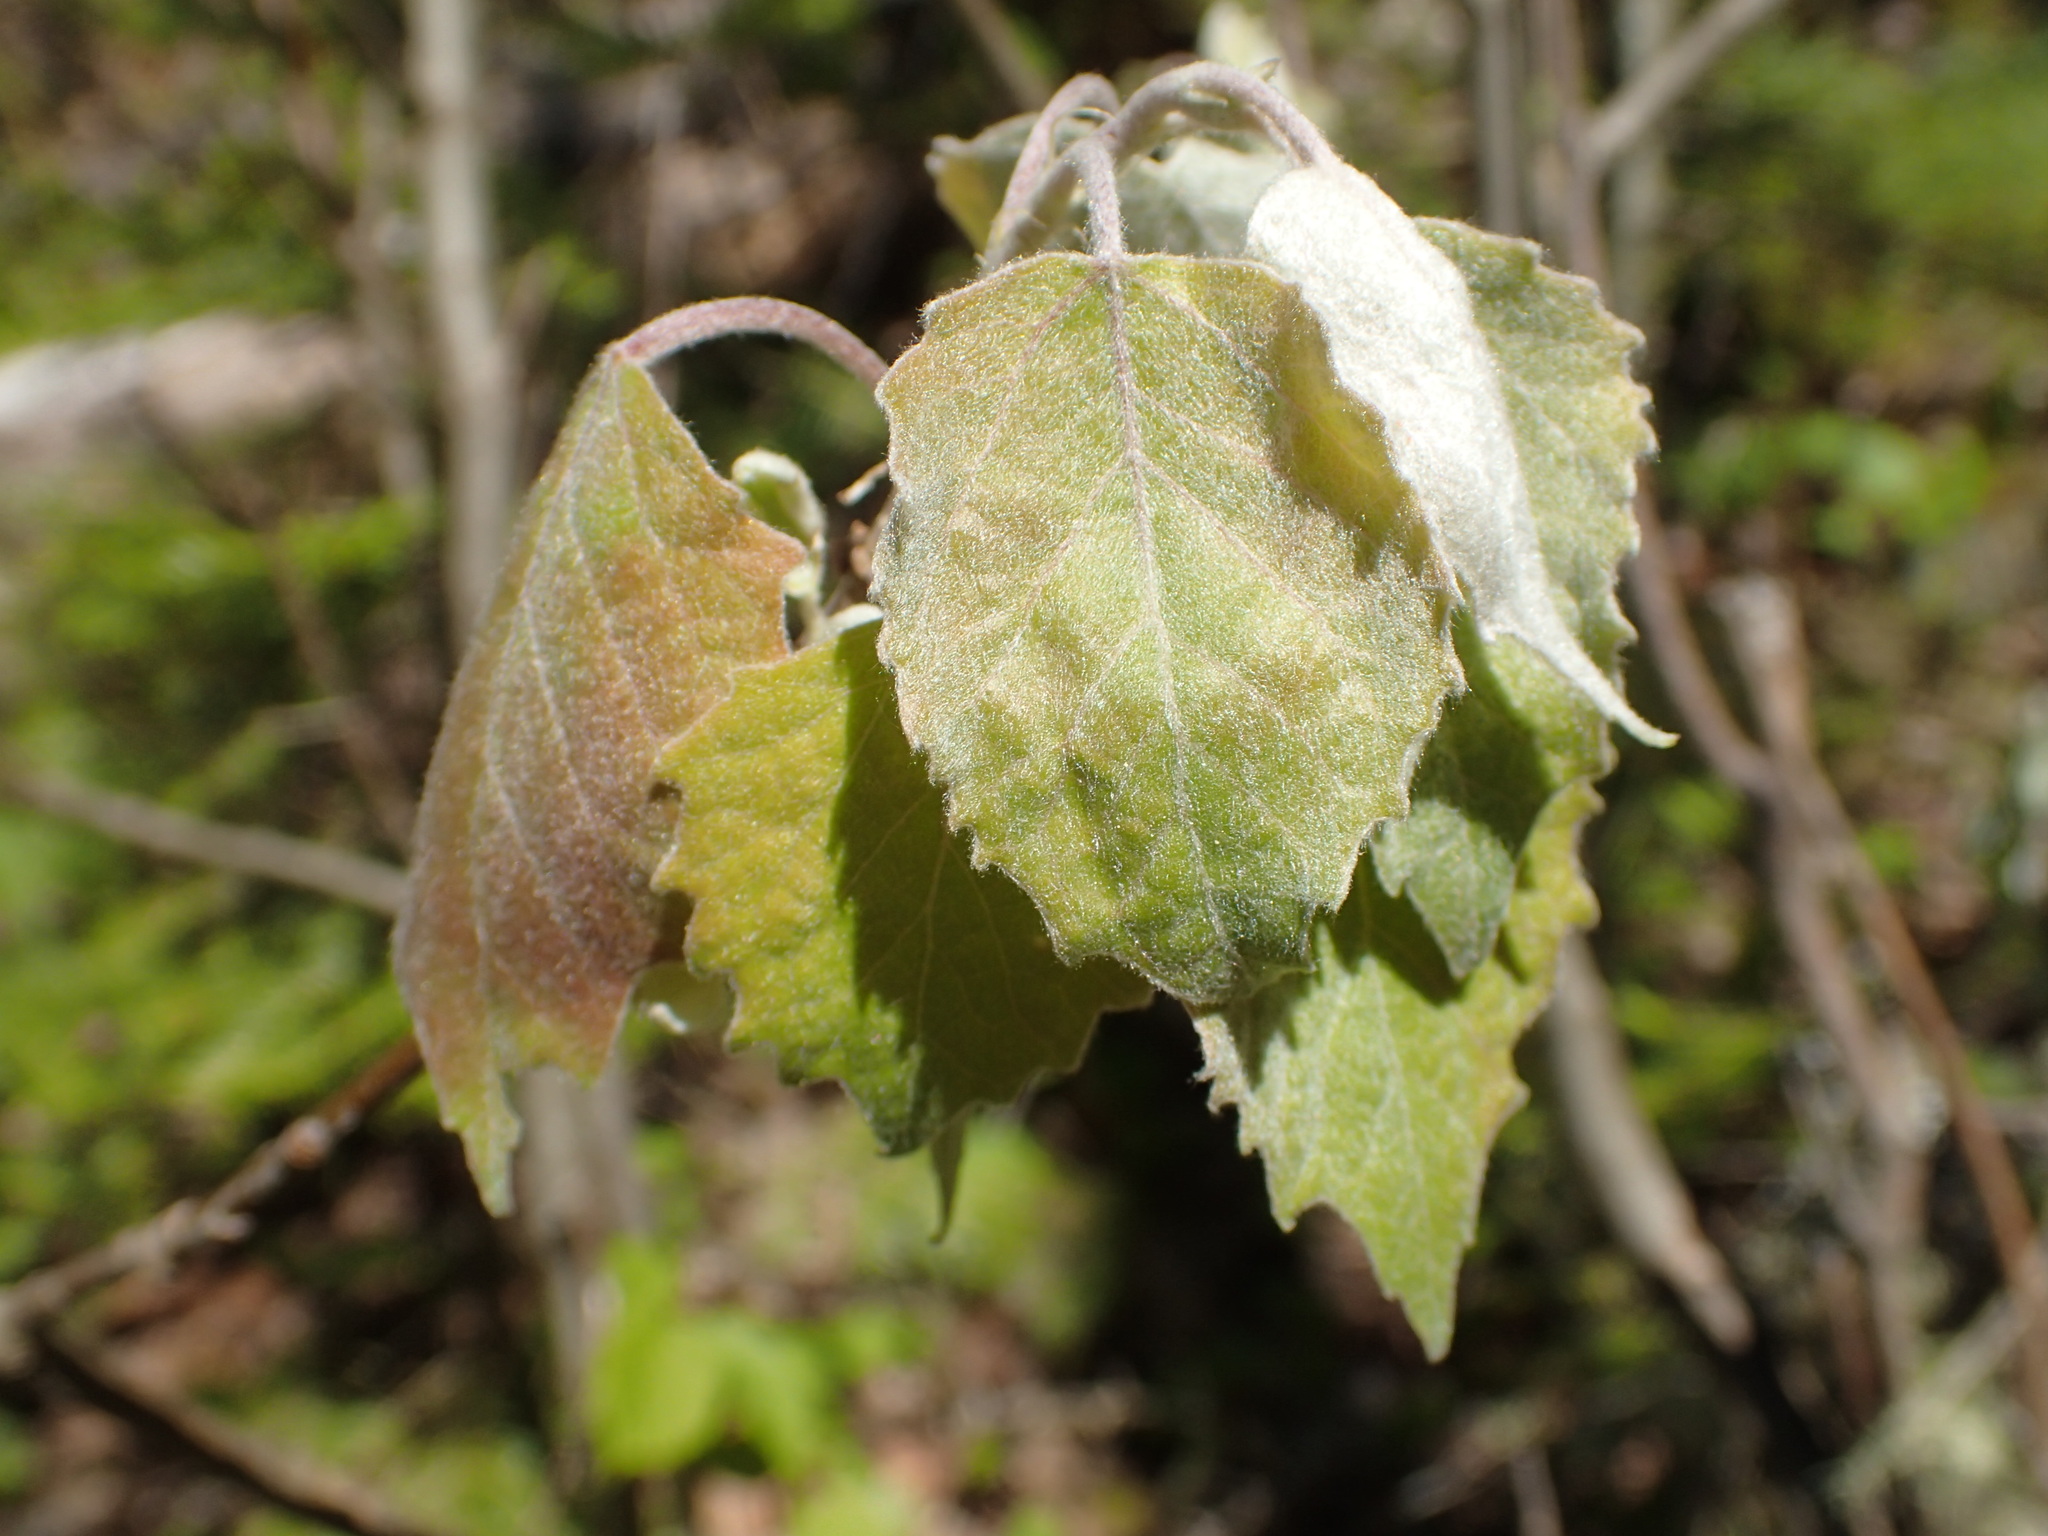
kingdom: Plantae
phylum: Tracheophyta
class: Magnoliopsida
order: Malpighiales
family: Salicaceae
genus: Populus
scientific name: Populus grandidentata
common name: Bigtooth aspen
